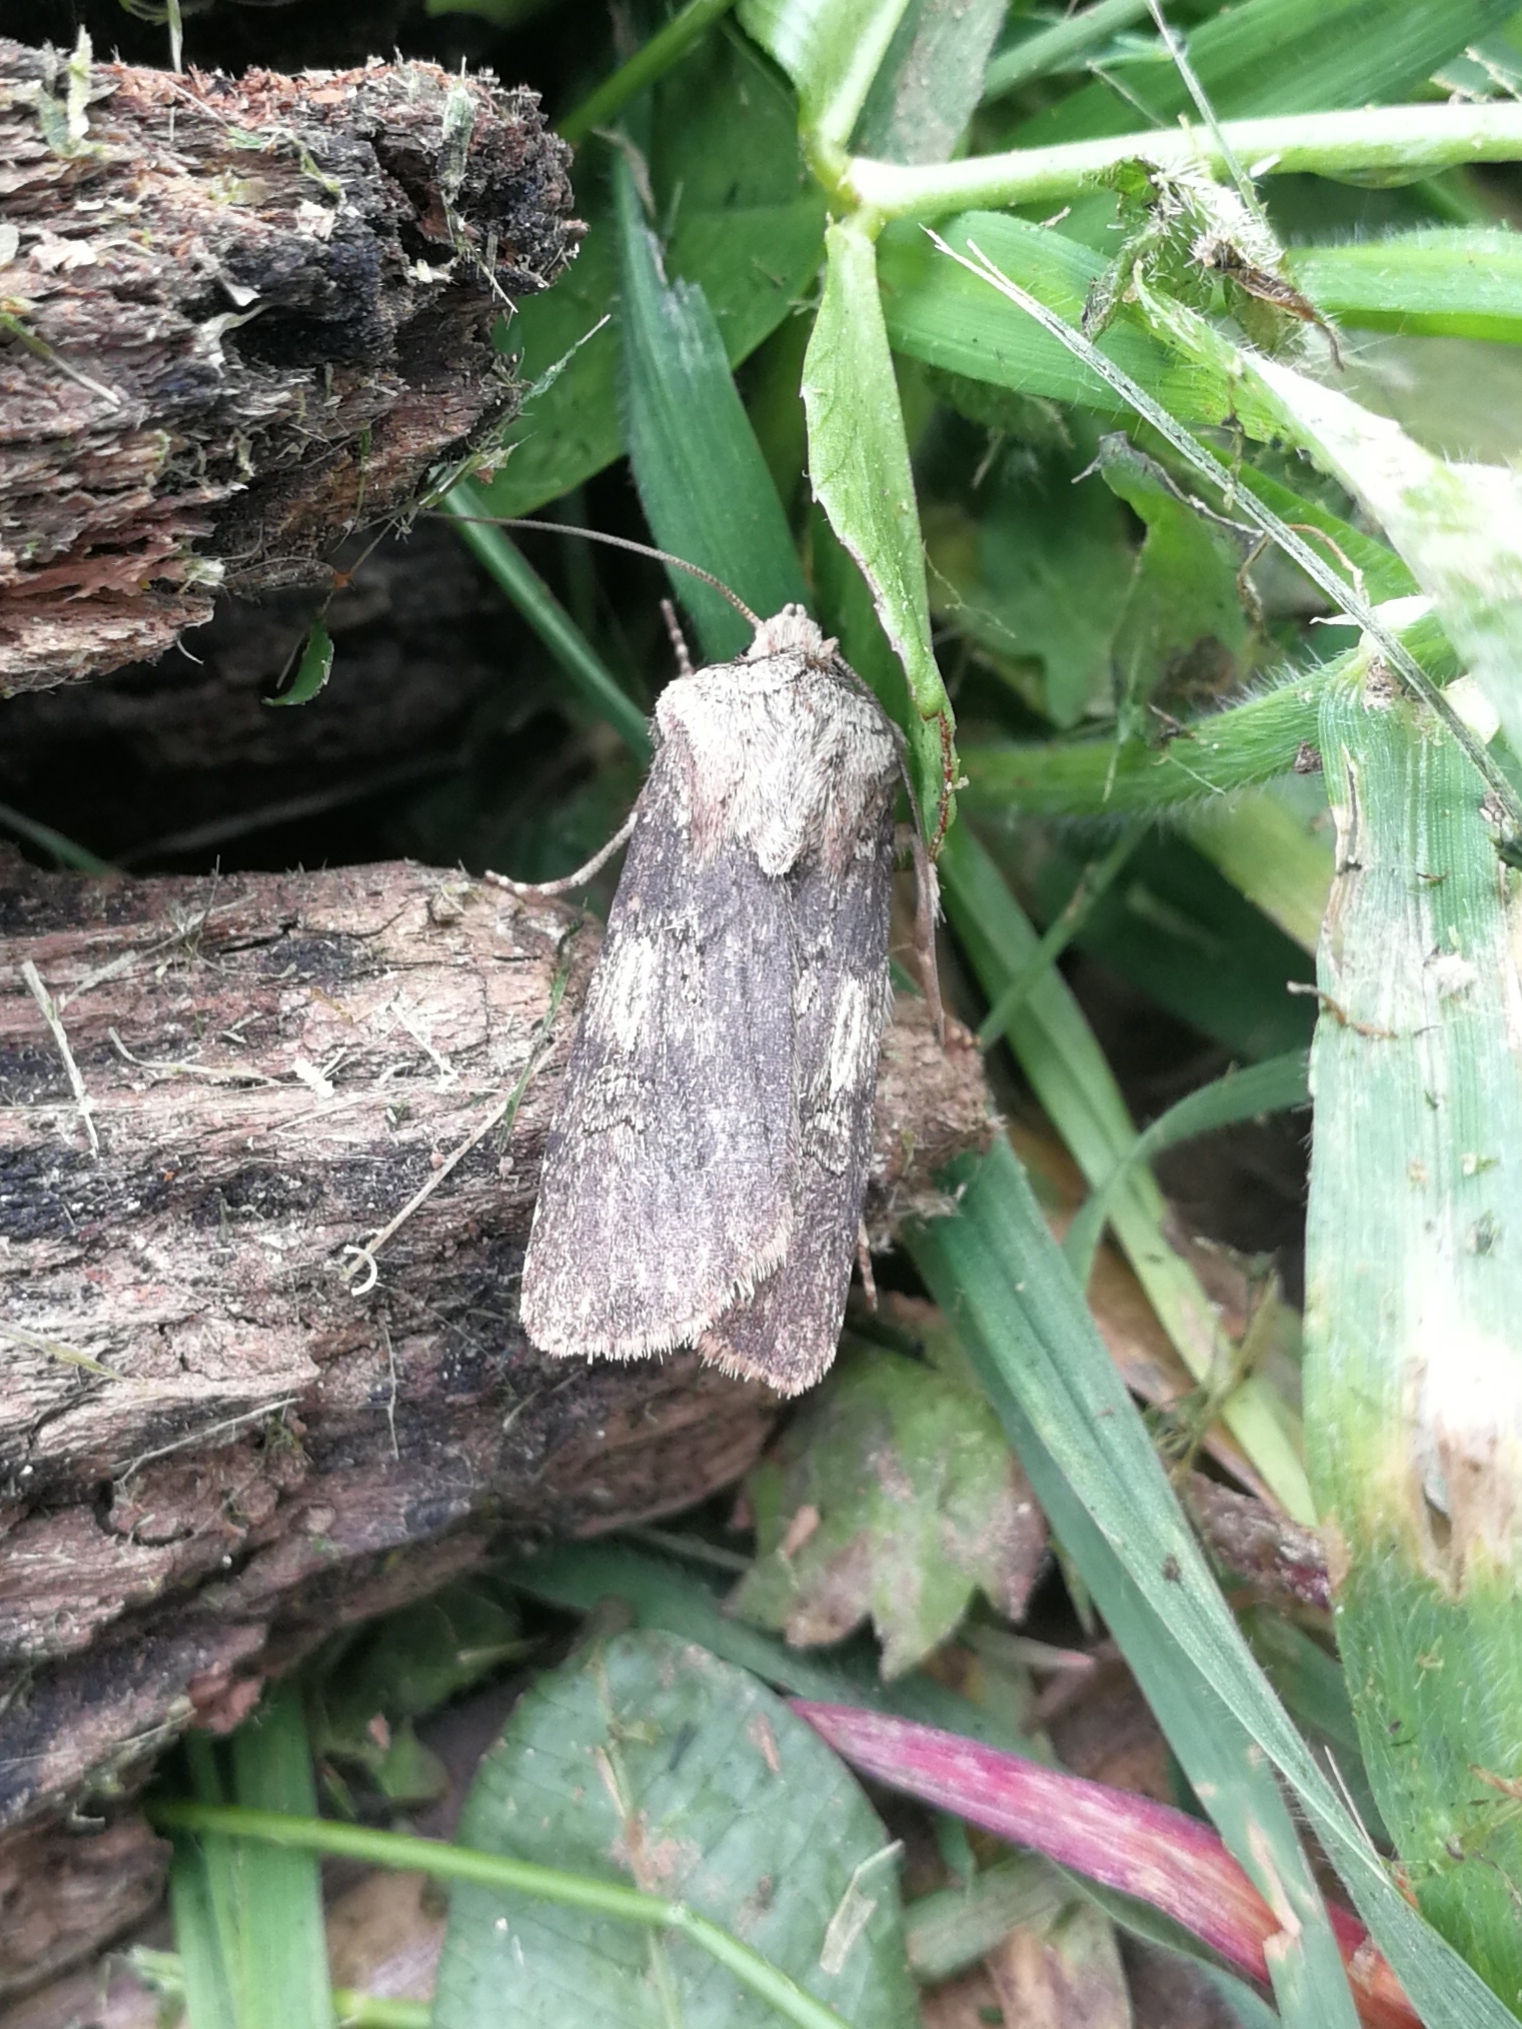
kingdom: Animalia
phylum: Arthropoda
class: Insecta
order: Lepidoptera
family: Noctuidae
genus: Agrotis
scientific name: Agrotis puta
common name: Shuttle-shaped dart
